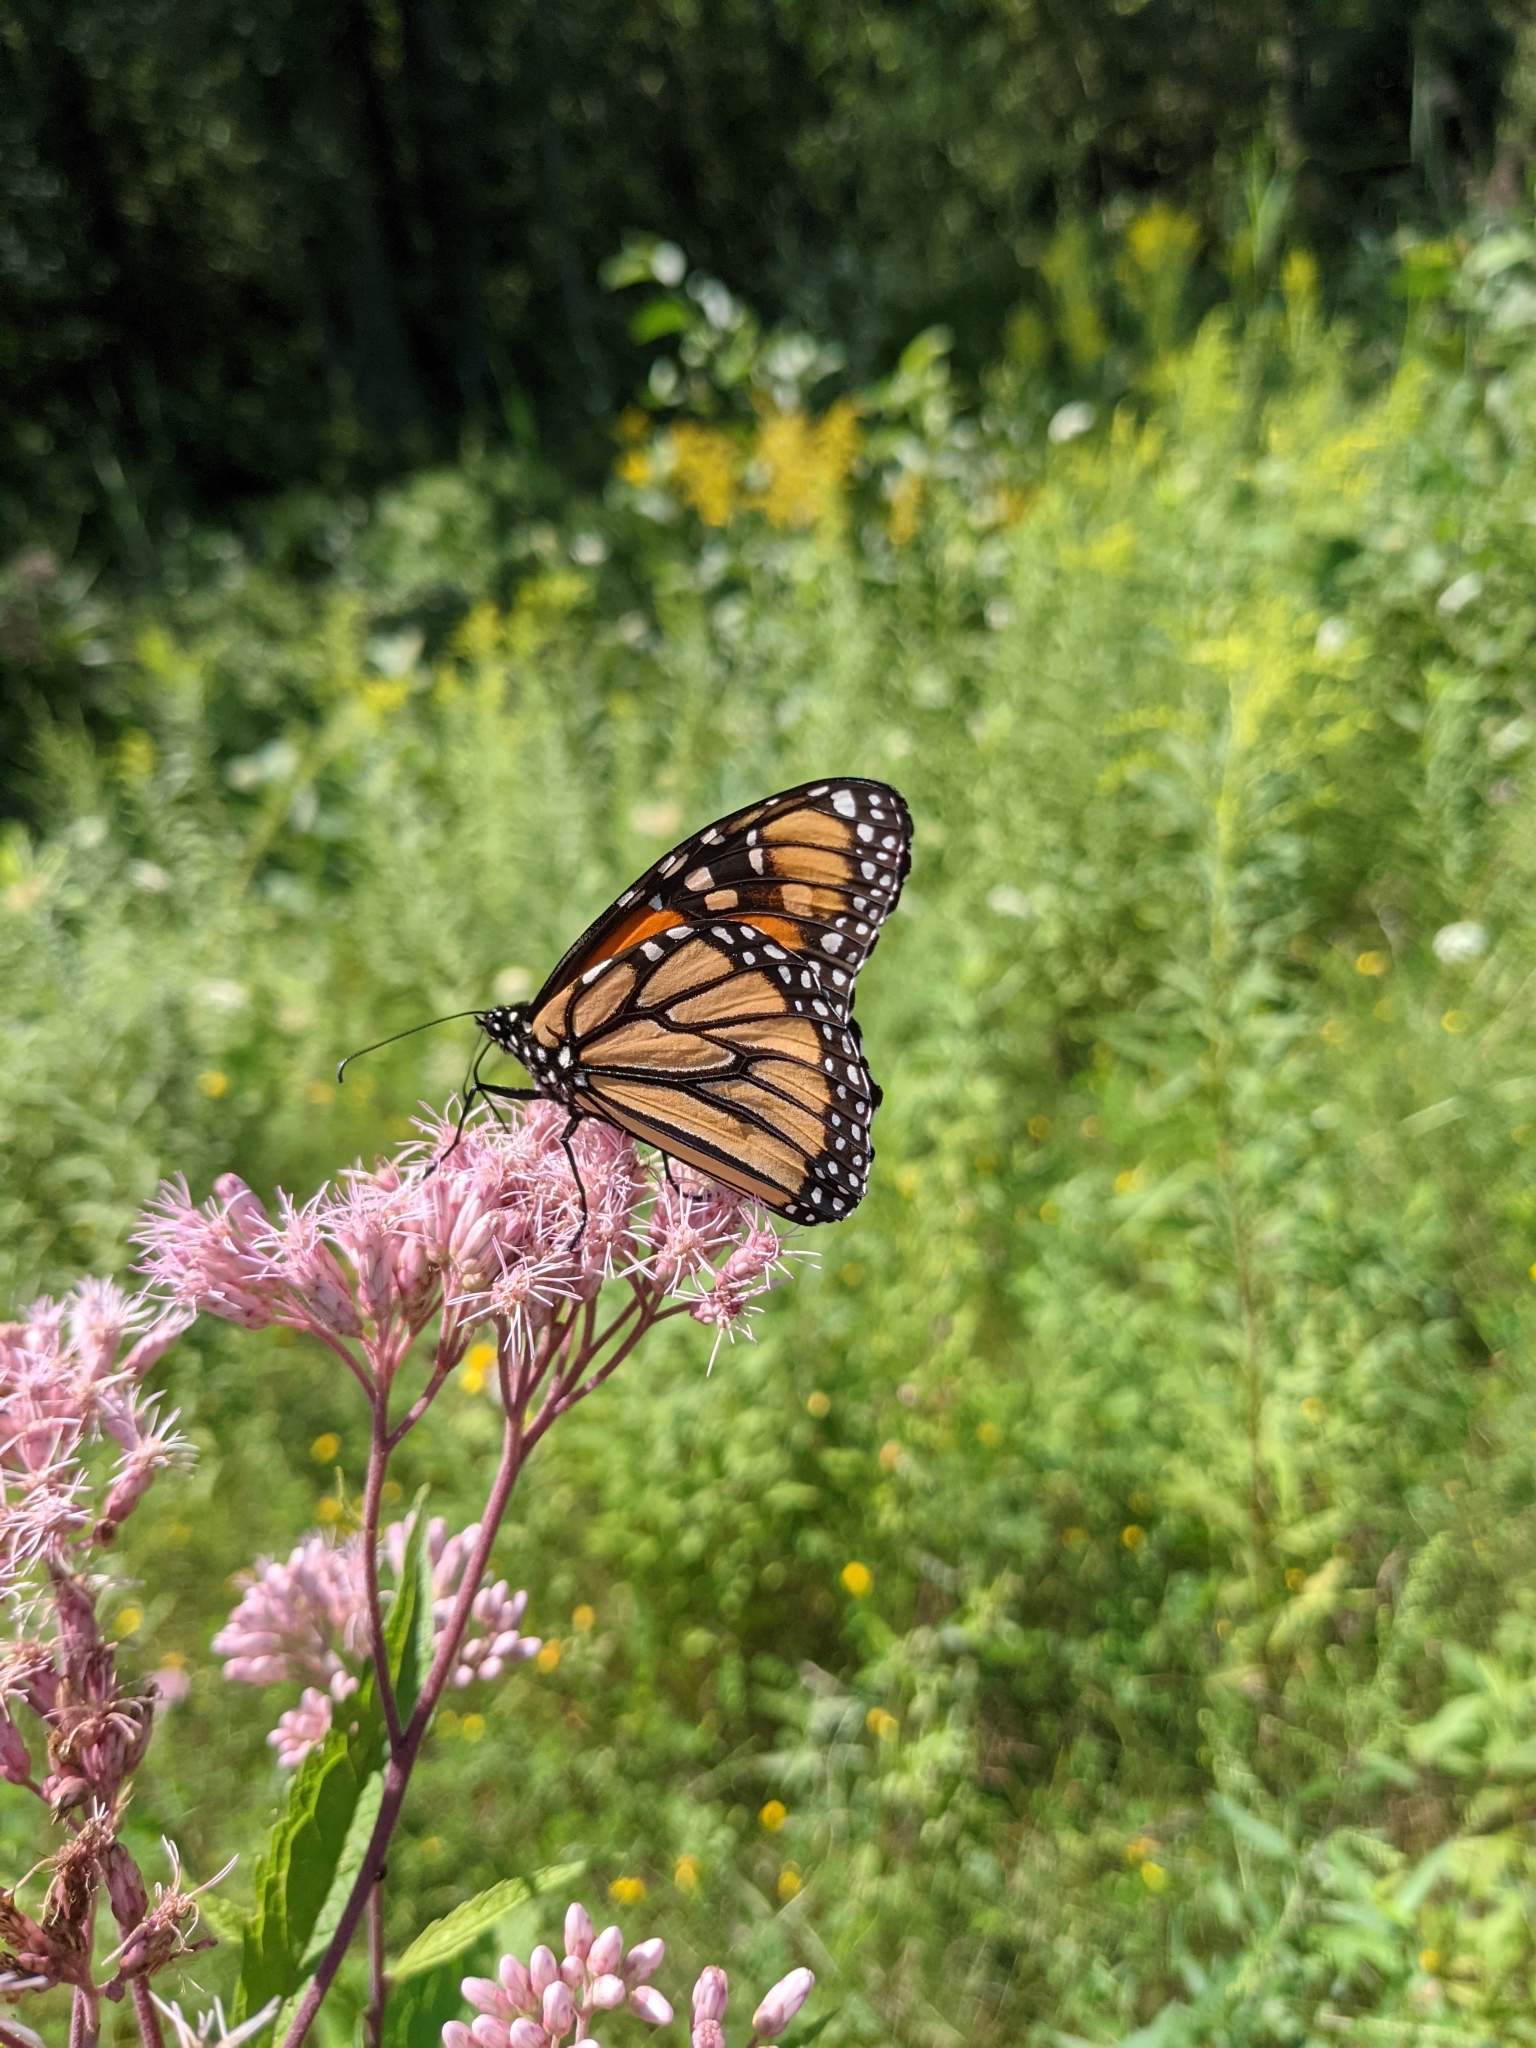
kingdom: Animalia
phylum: Arthropoda
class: Insecta
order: Lepidoptera
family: Nymphalidae
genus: Danaus
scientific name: Danaus plexippus
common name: Monarch
